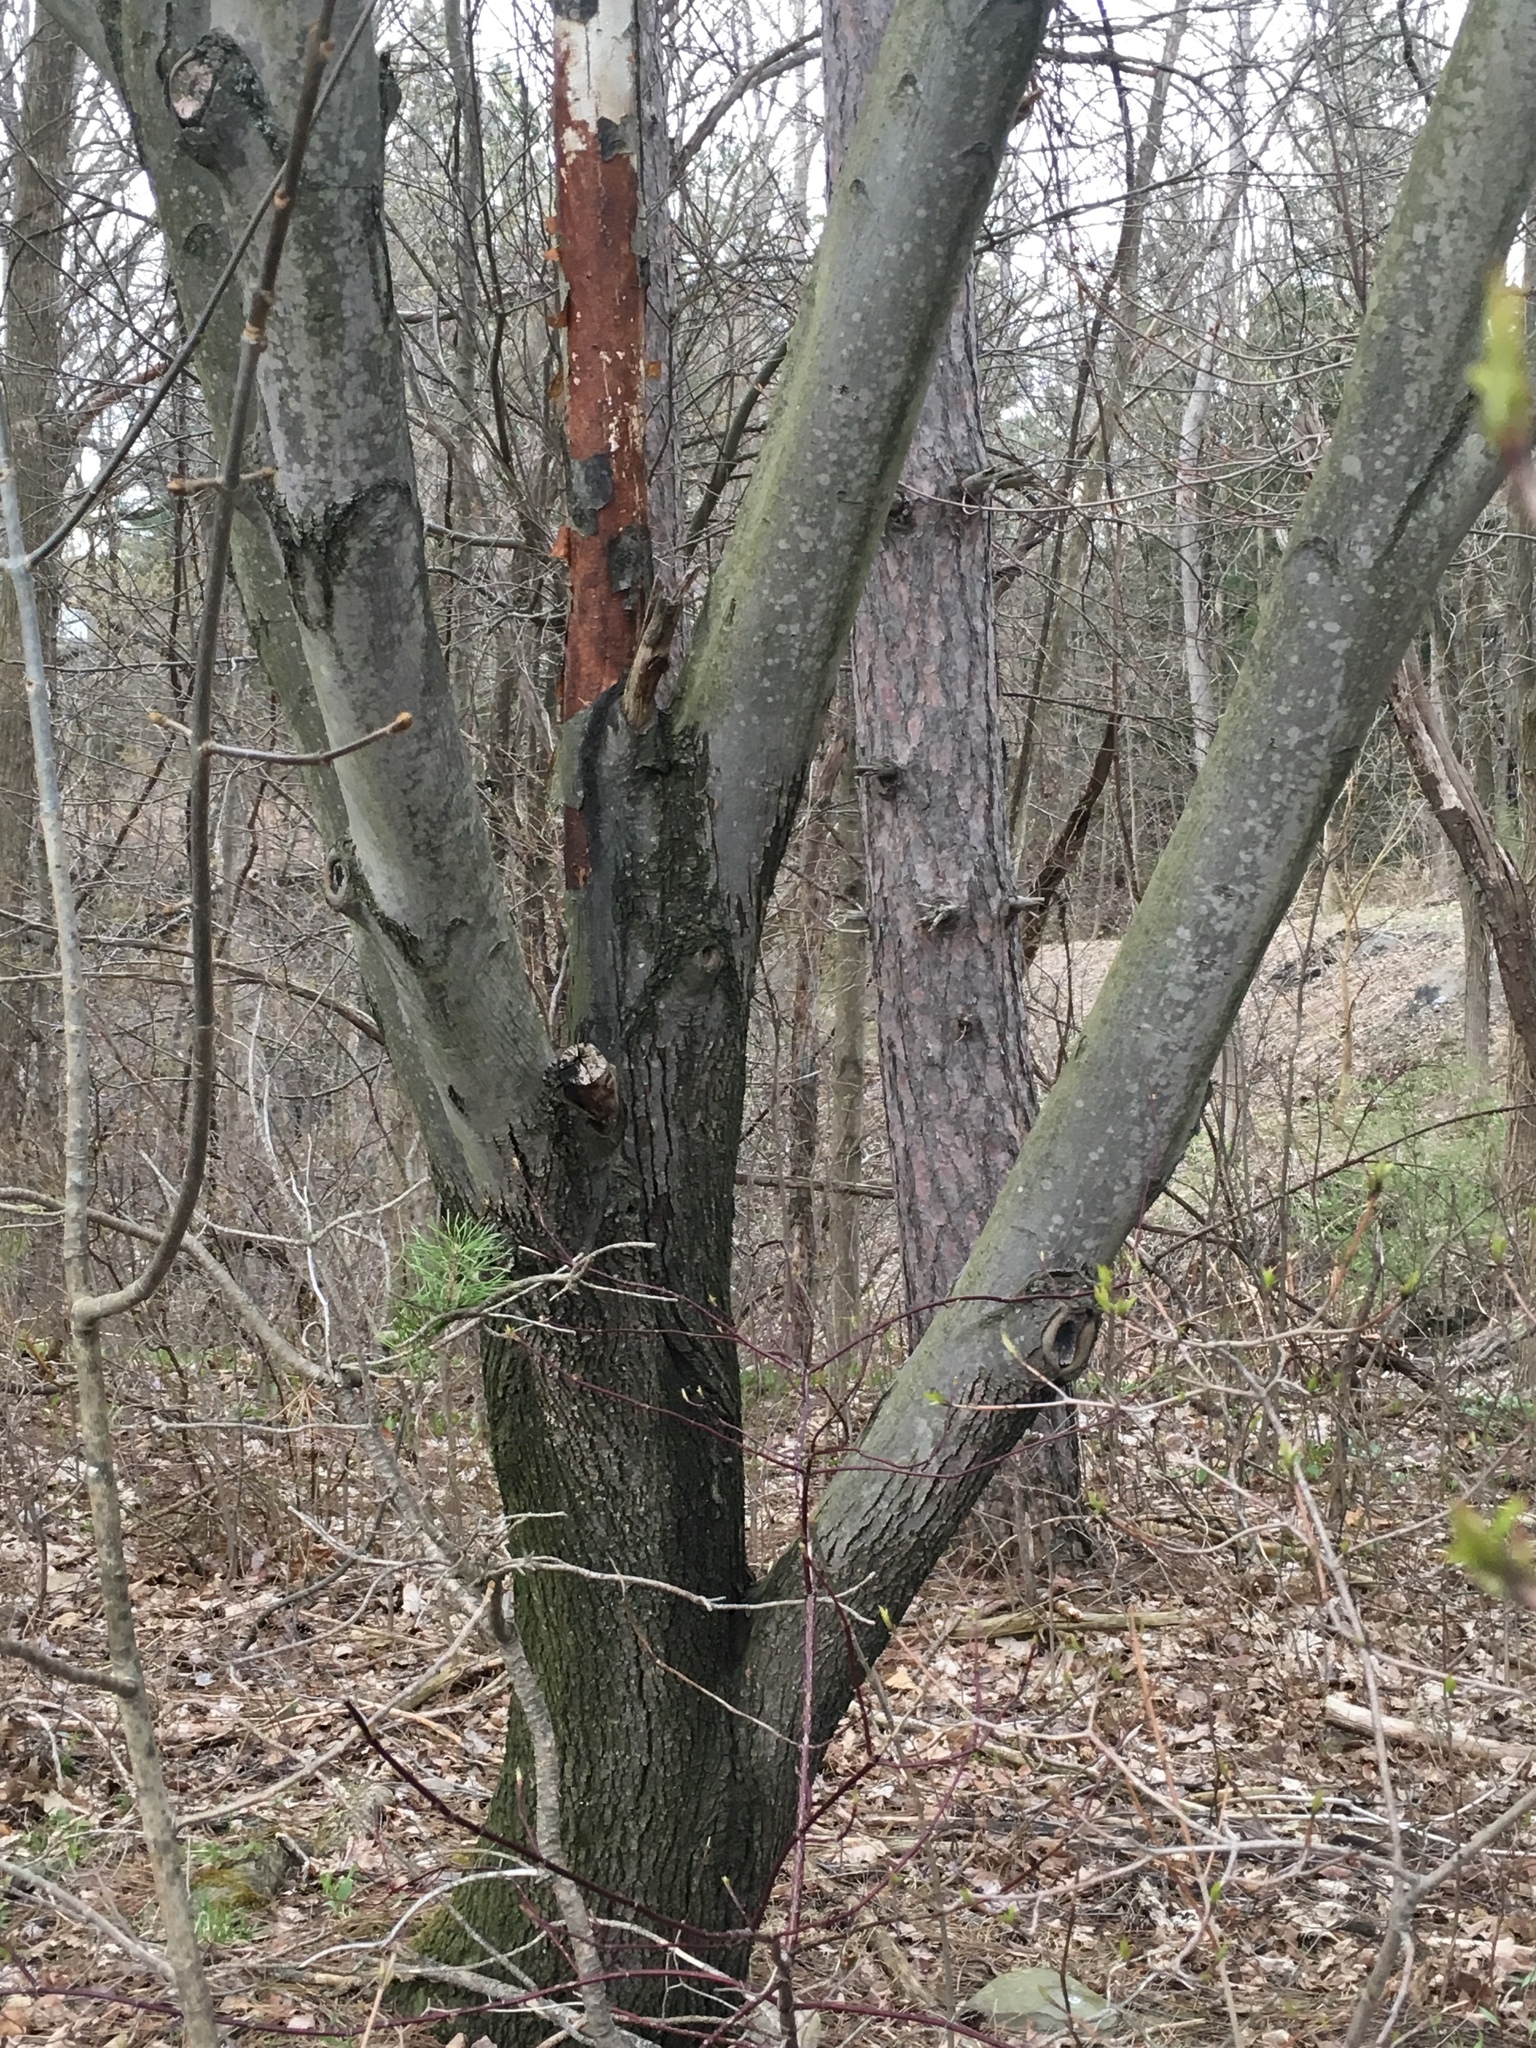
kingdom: Plantae
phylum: Tracheophyta
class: Magnoliopsida
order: Rosales
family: Rosaceae
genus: Amelanchier
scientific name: Amelanchier arborea
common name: Downy serviceberry
